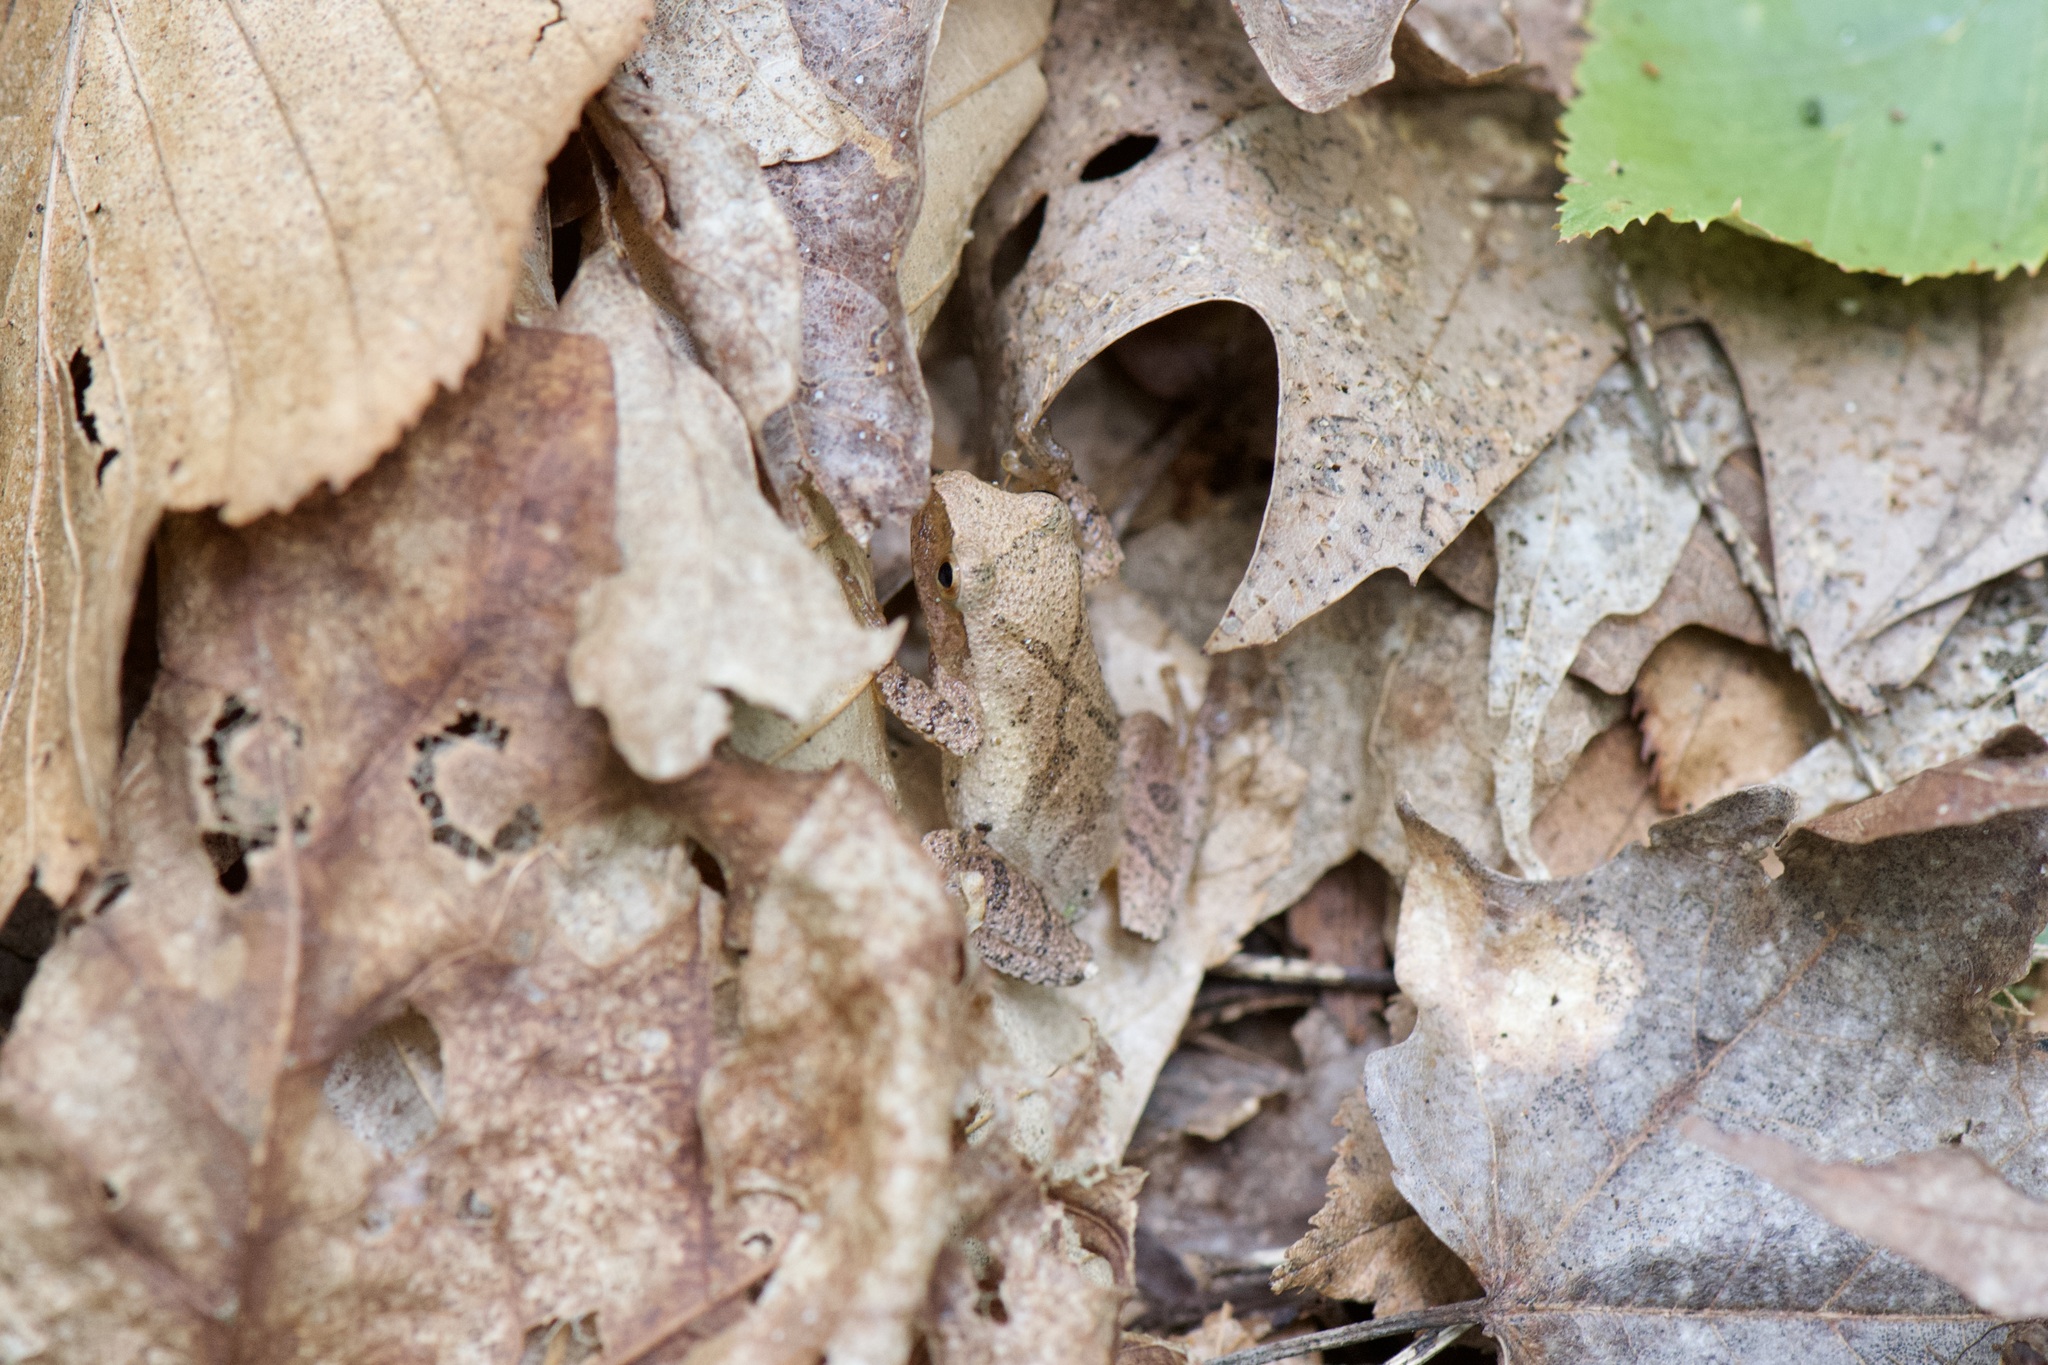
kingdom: Animalia
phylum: Chordata
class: Amphibia
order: Anura
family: Hylidae
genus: Pseudacris
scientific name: Pseudacris crucifer
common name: Spring peeper
